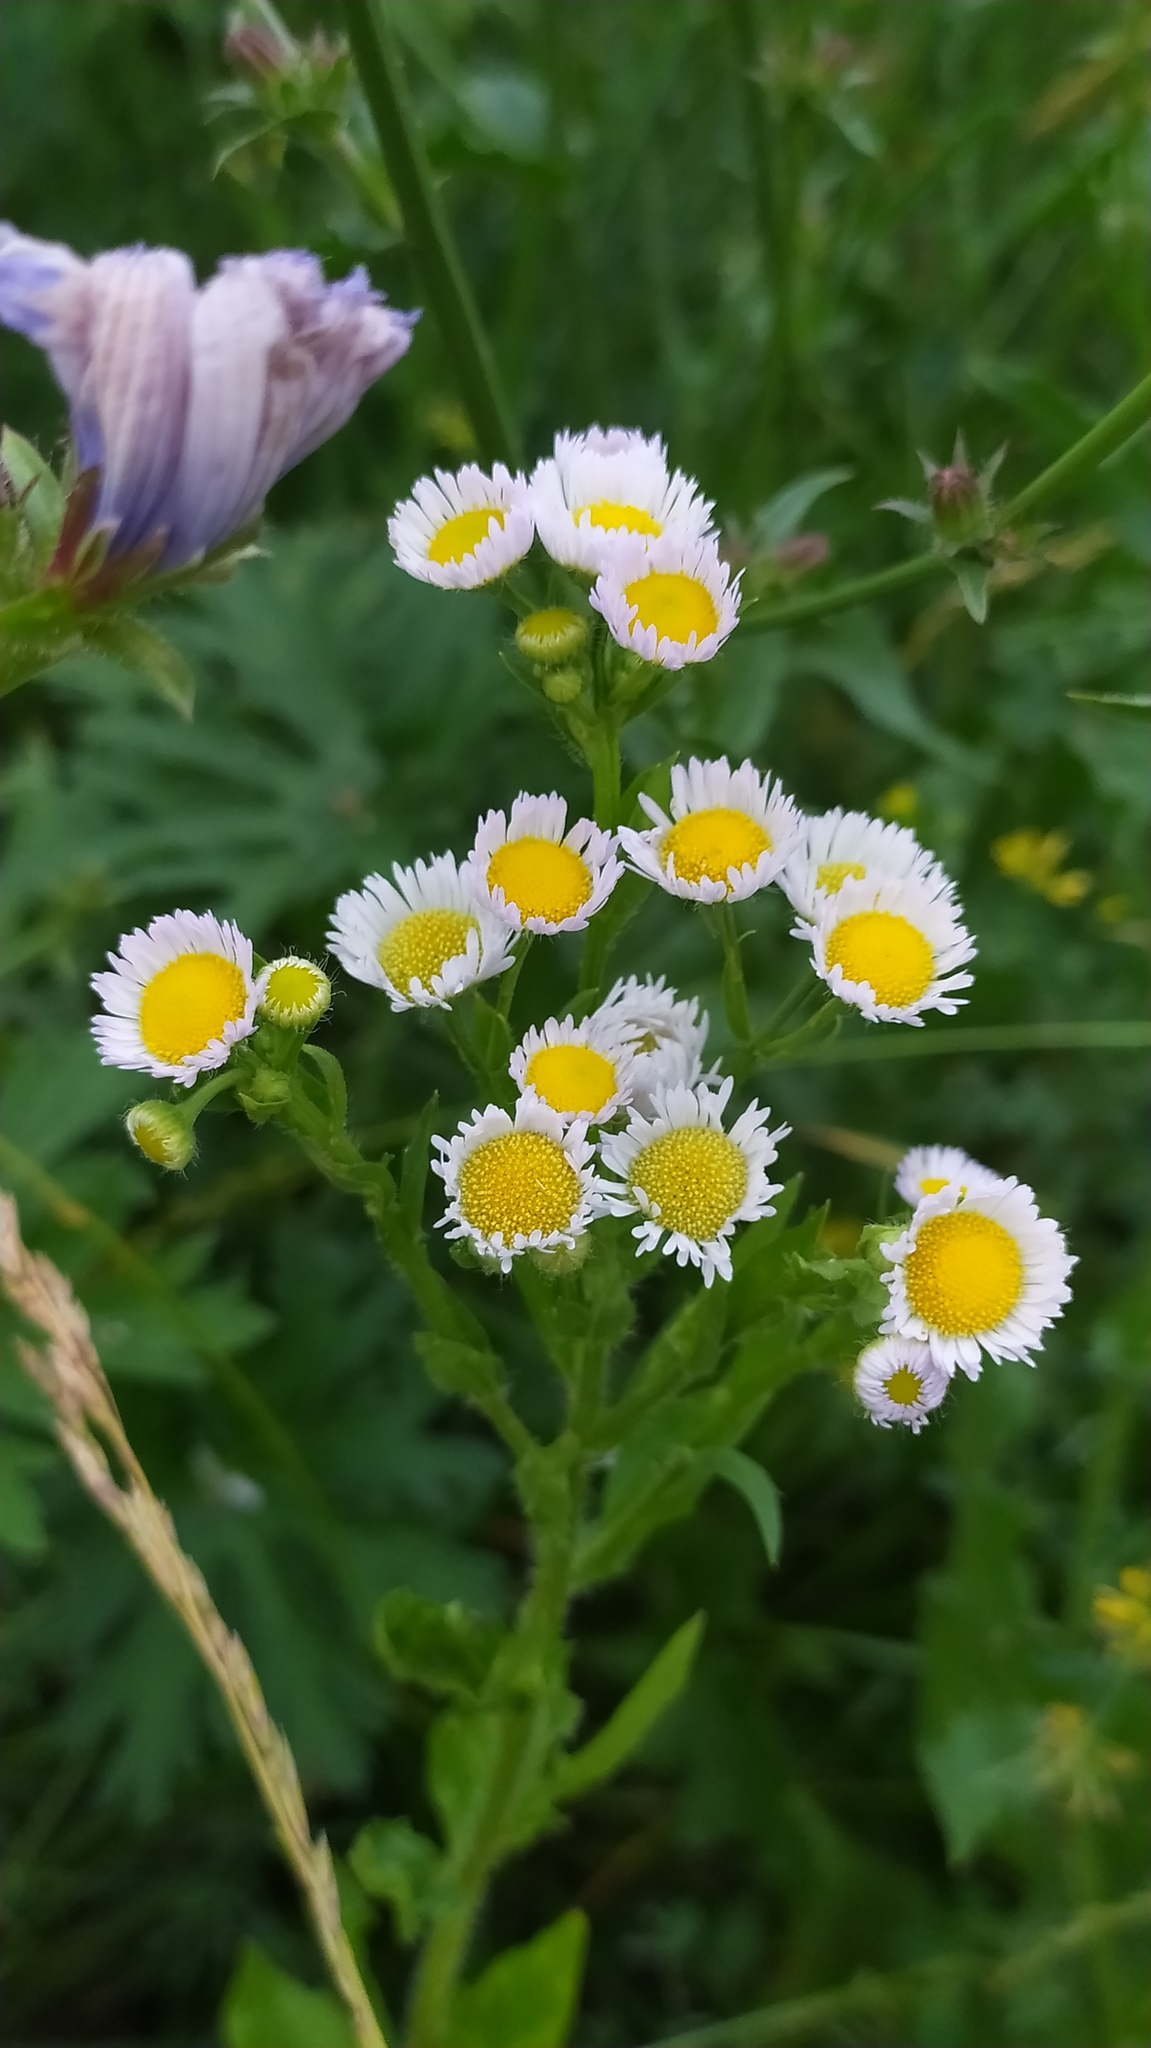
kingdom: Plantae
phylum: Tracheophyta
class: Magnoliopsida
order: Asterales
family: Asteraceae
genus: Erigeron
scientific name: Erigeron annuus
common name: Tall fleabane
